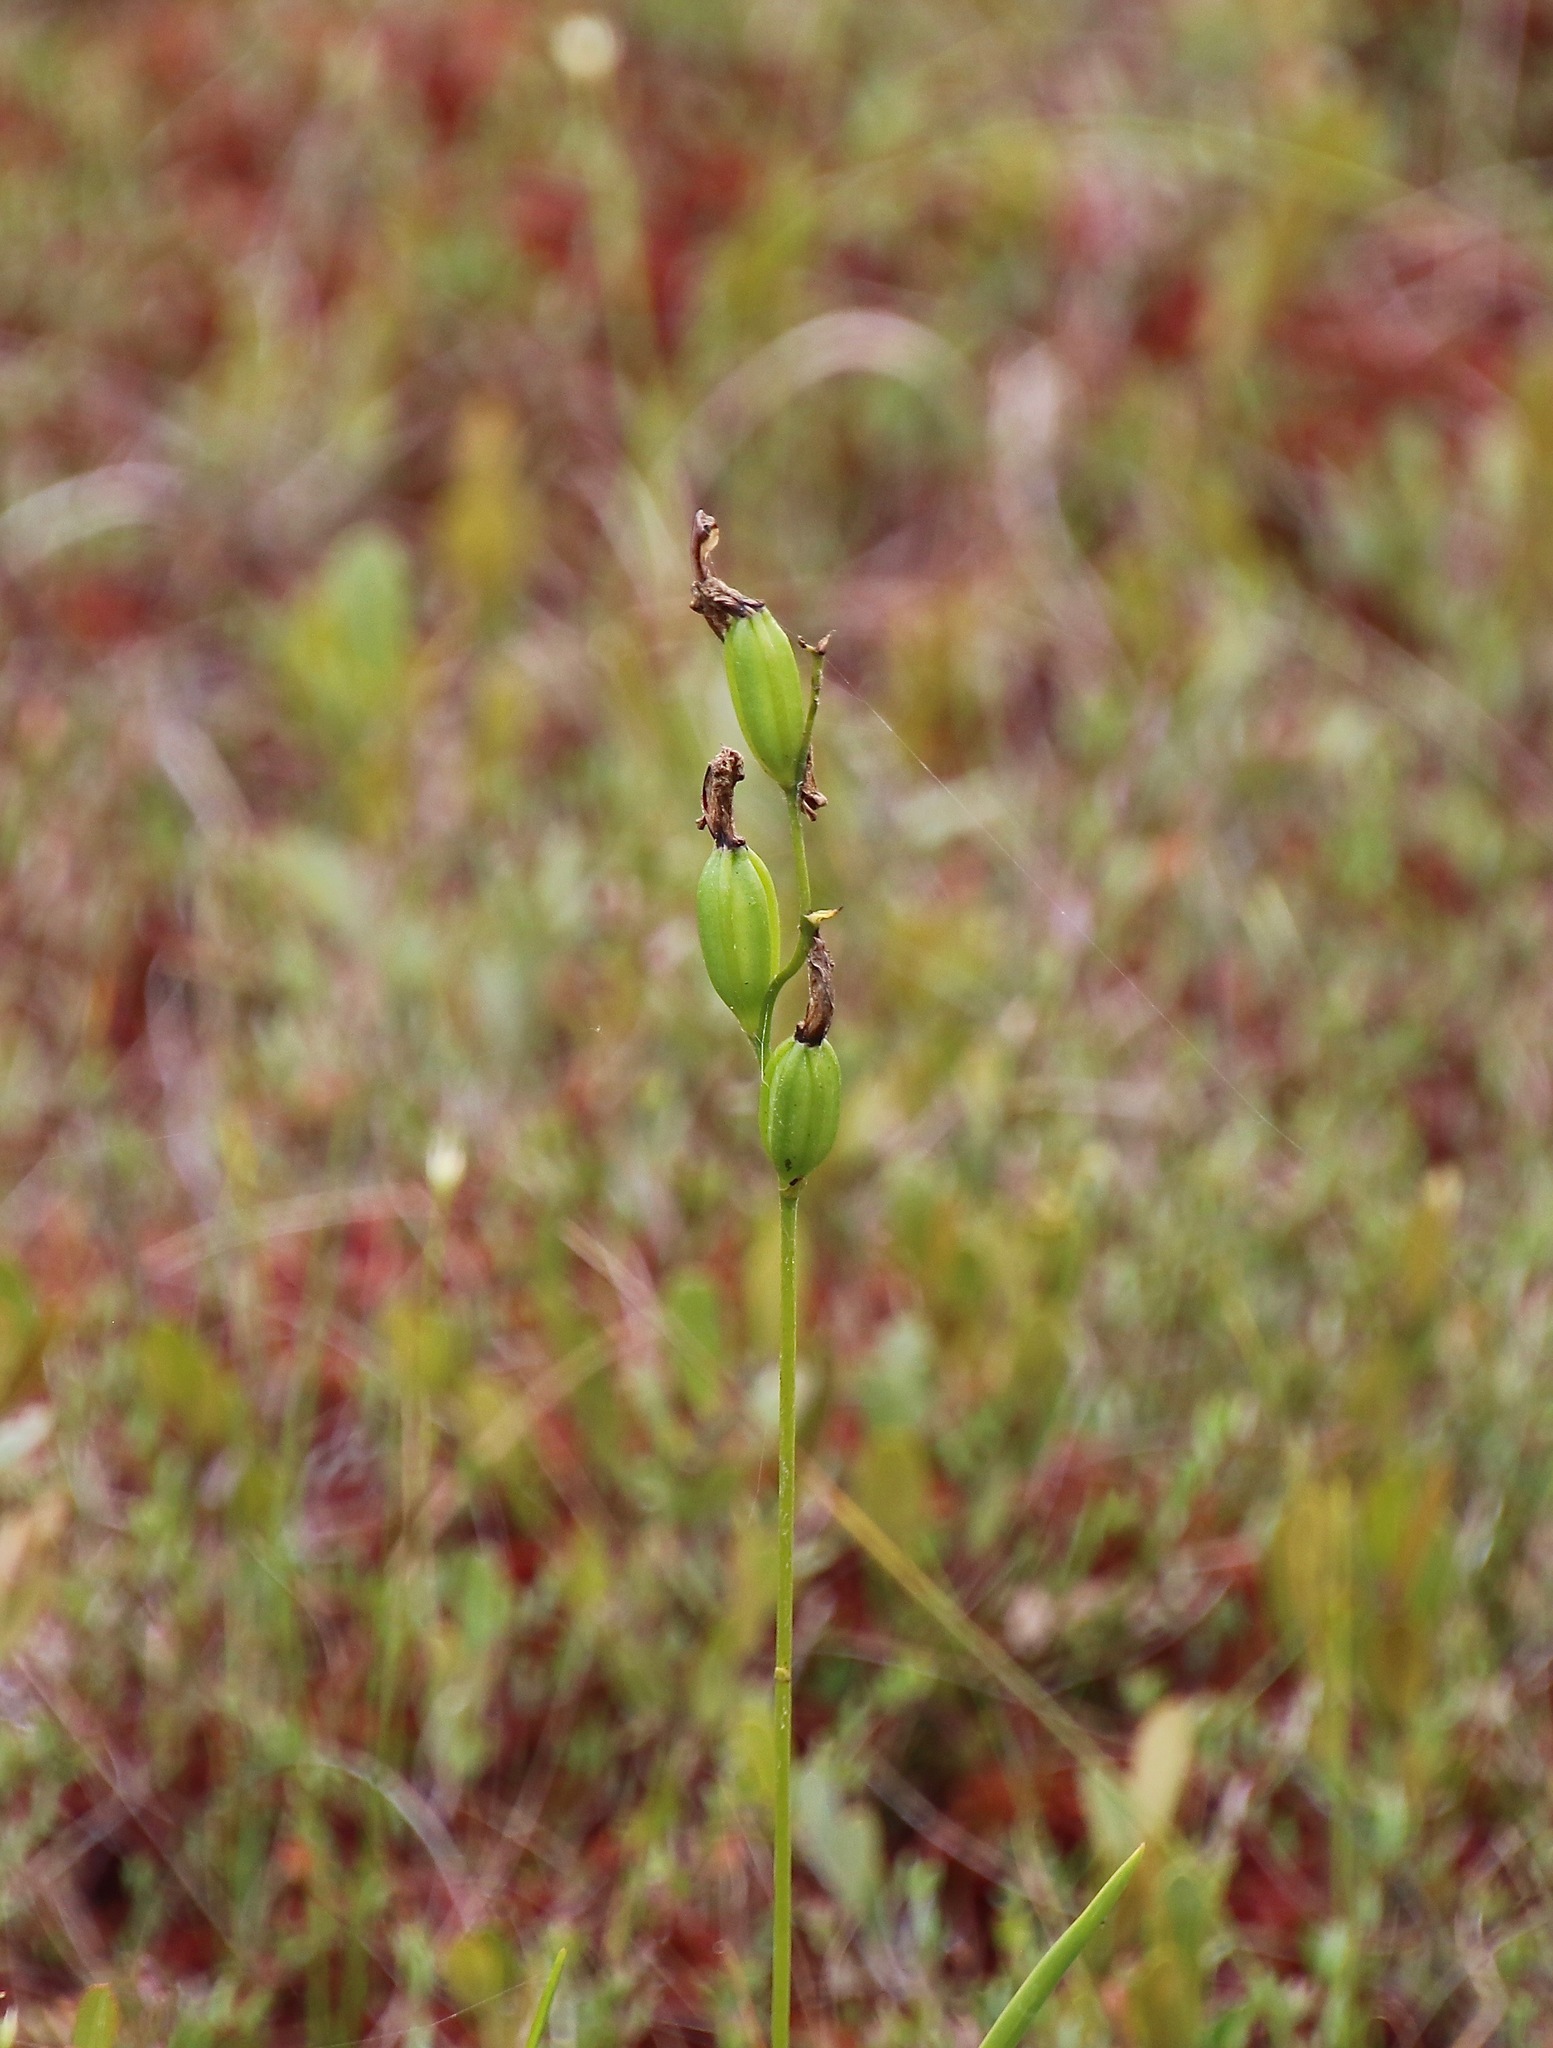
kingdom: Plantae
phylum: Tracheophyta
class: Liliopsida
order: Asparagales
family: Orchidaceae
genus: Calopogon
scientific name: Calopogon tuberosus
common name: Grass-pink
